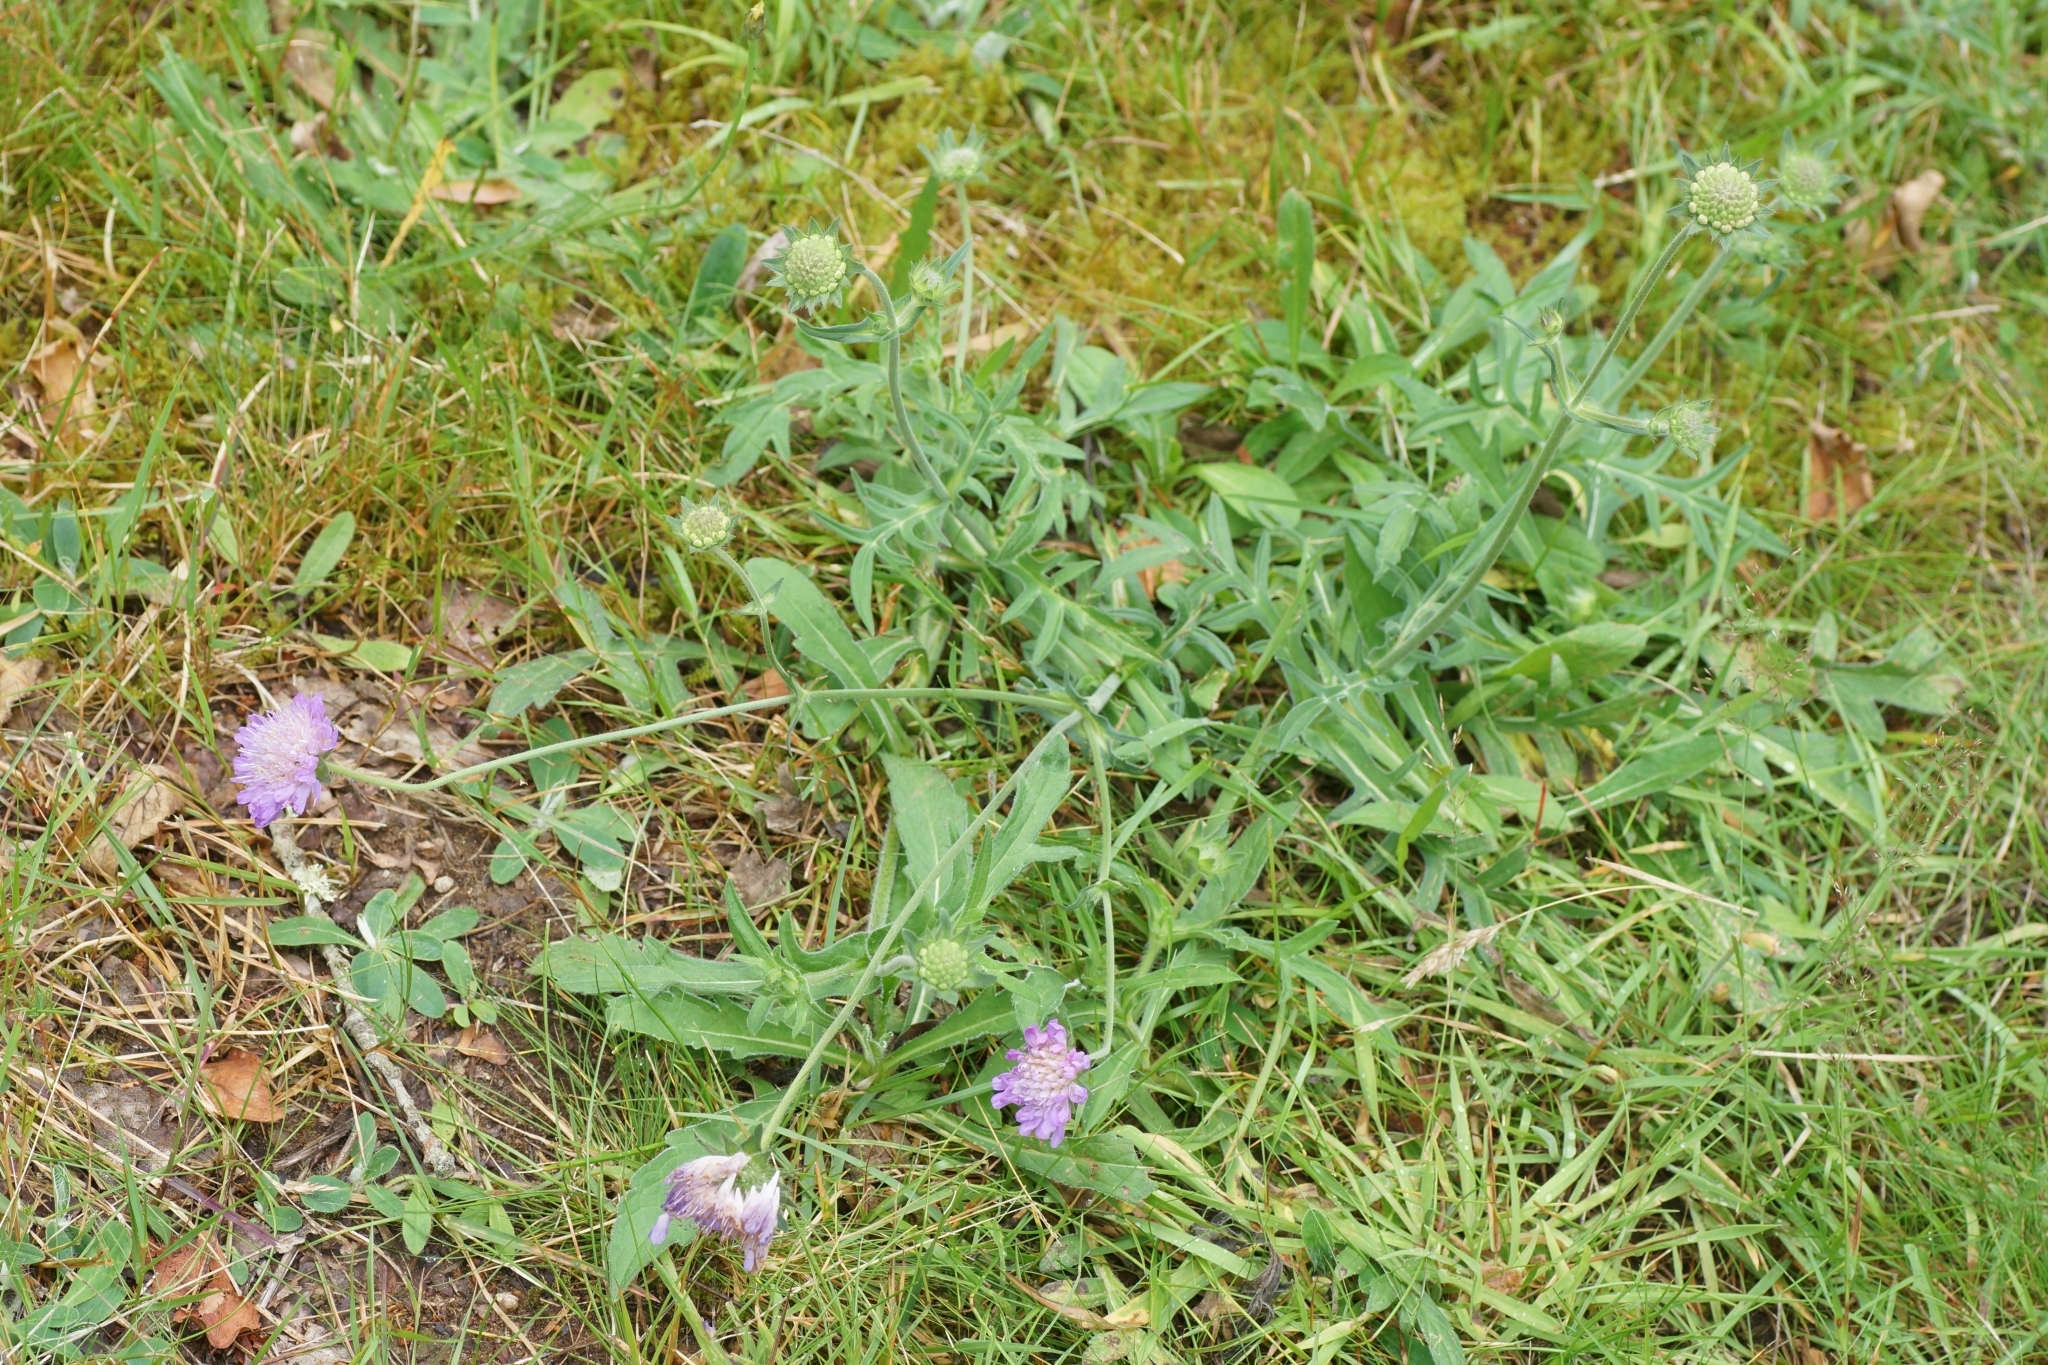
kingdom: Plantae
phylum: Tracheophyta
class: Magnoliopsida
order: Dipsacales
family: Caprifoliaceae
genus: Knautia
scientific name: Knautia arvensis
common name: Field scabiosa
